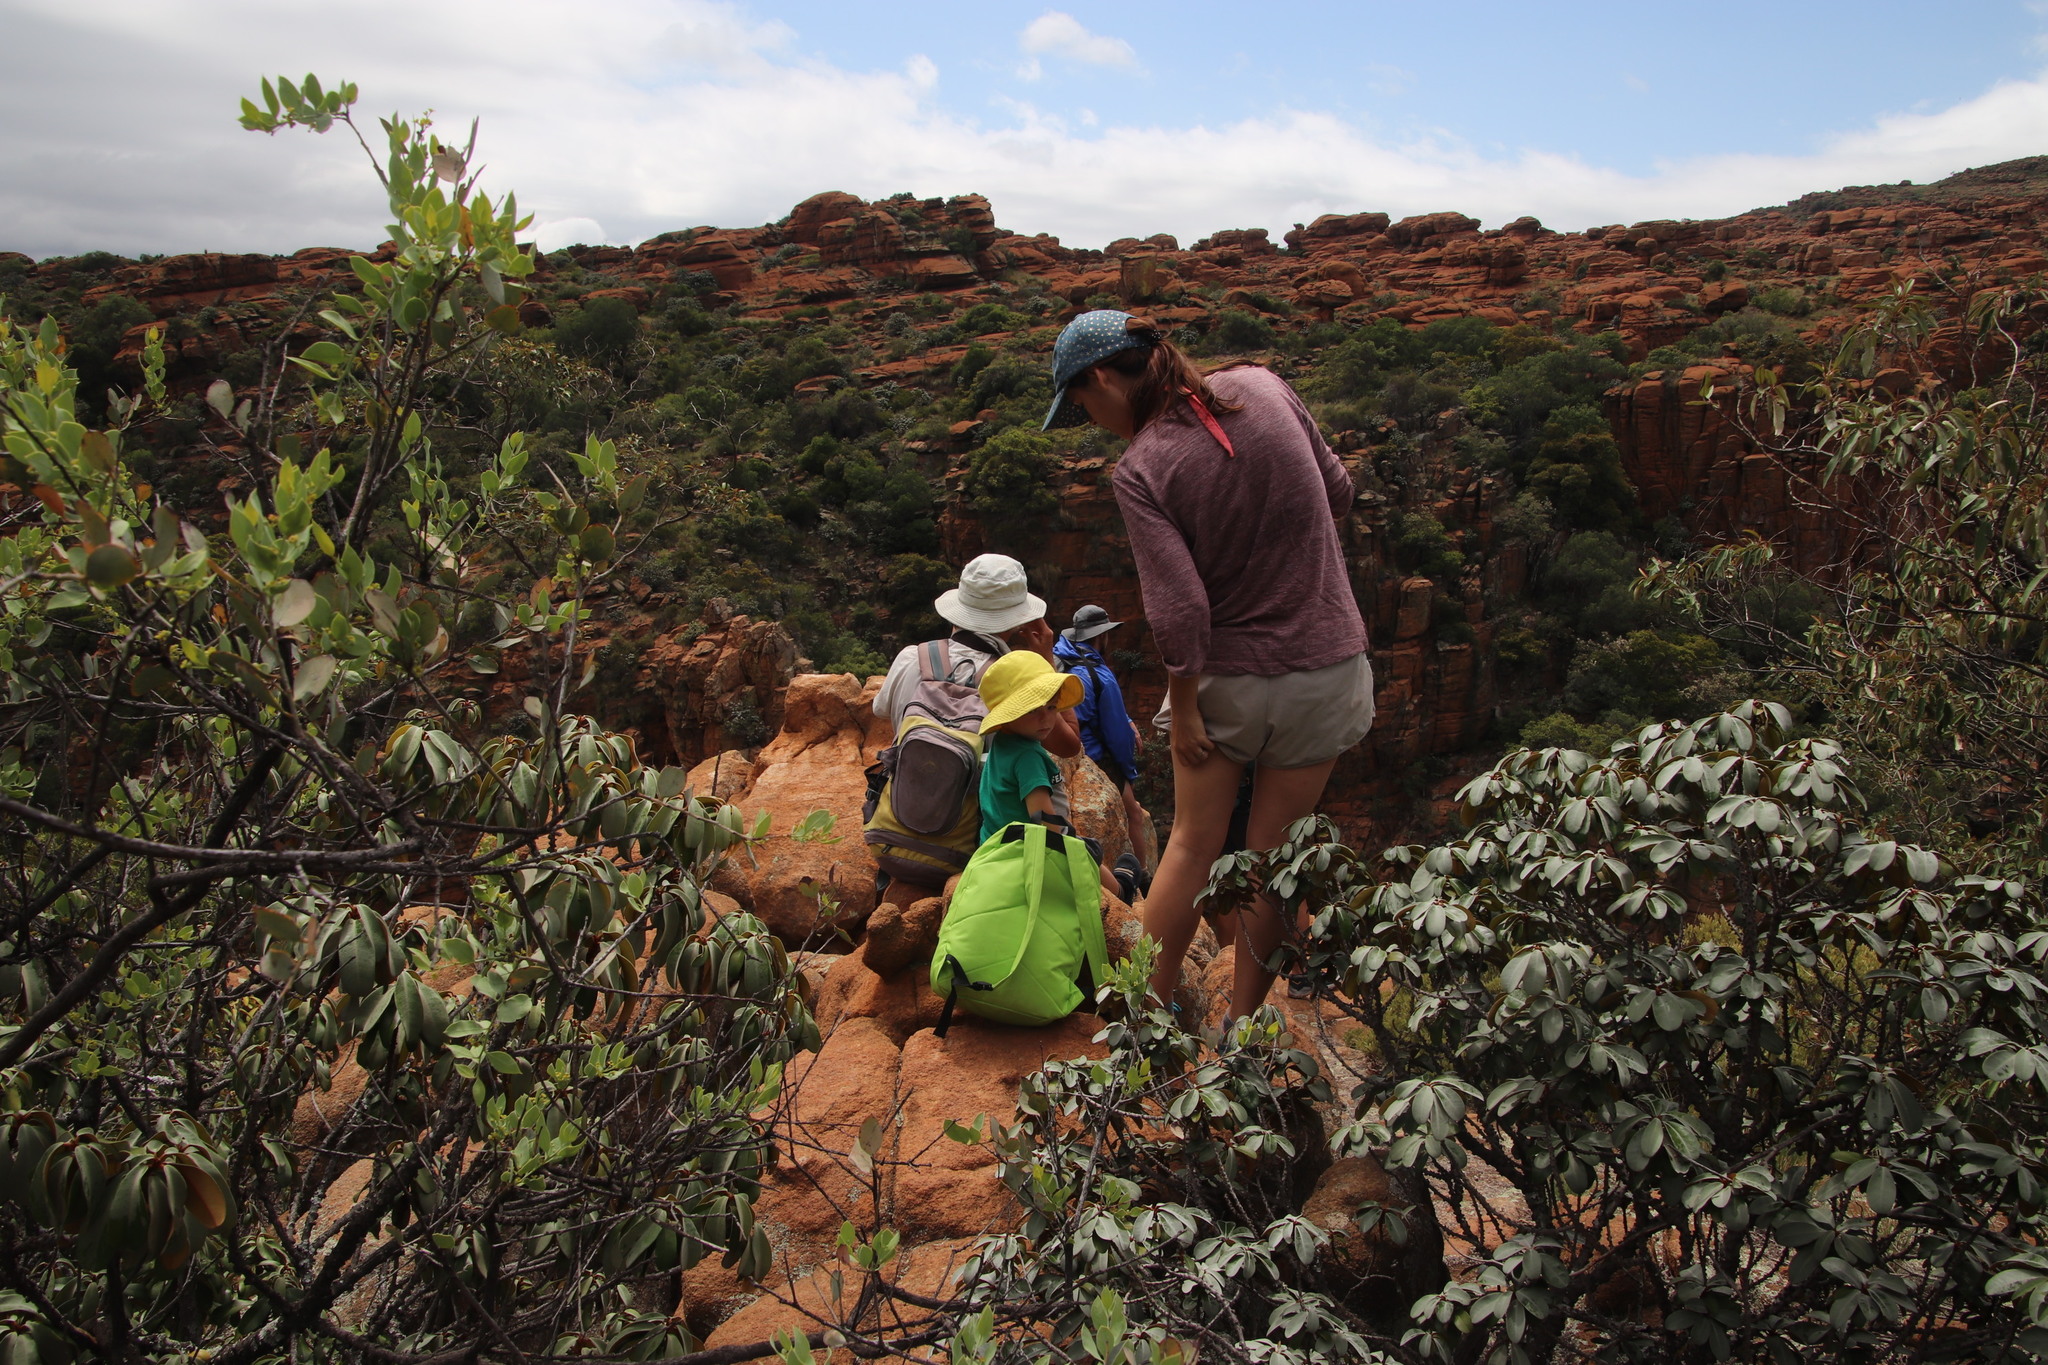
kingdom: Plantae
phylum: Tracheophyta
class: Magnoliopsida
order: Ericales
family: Sapotaceae
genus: Englerophytum
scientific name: Englerophytum magalismontanum
